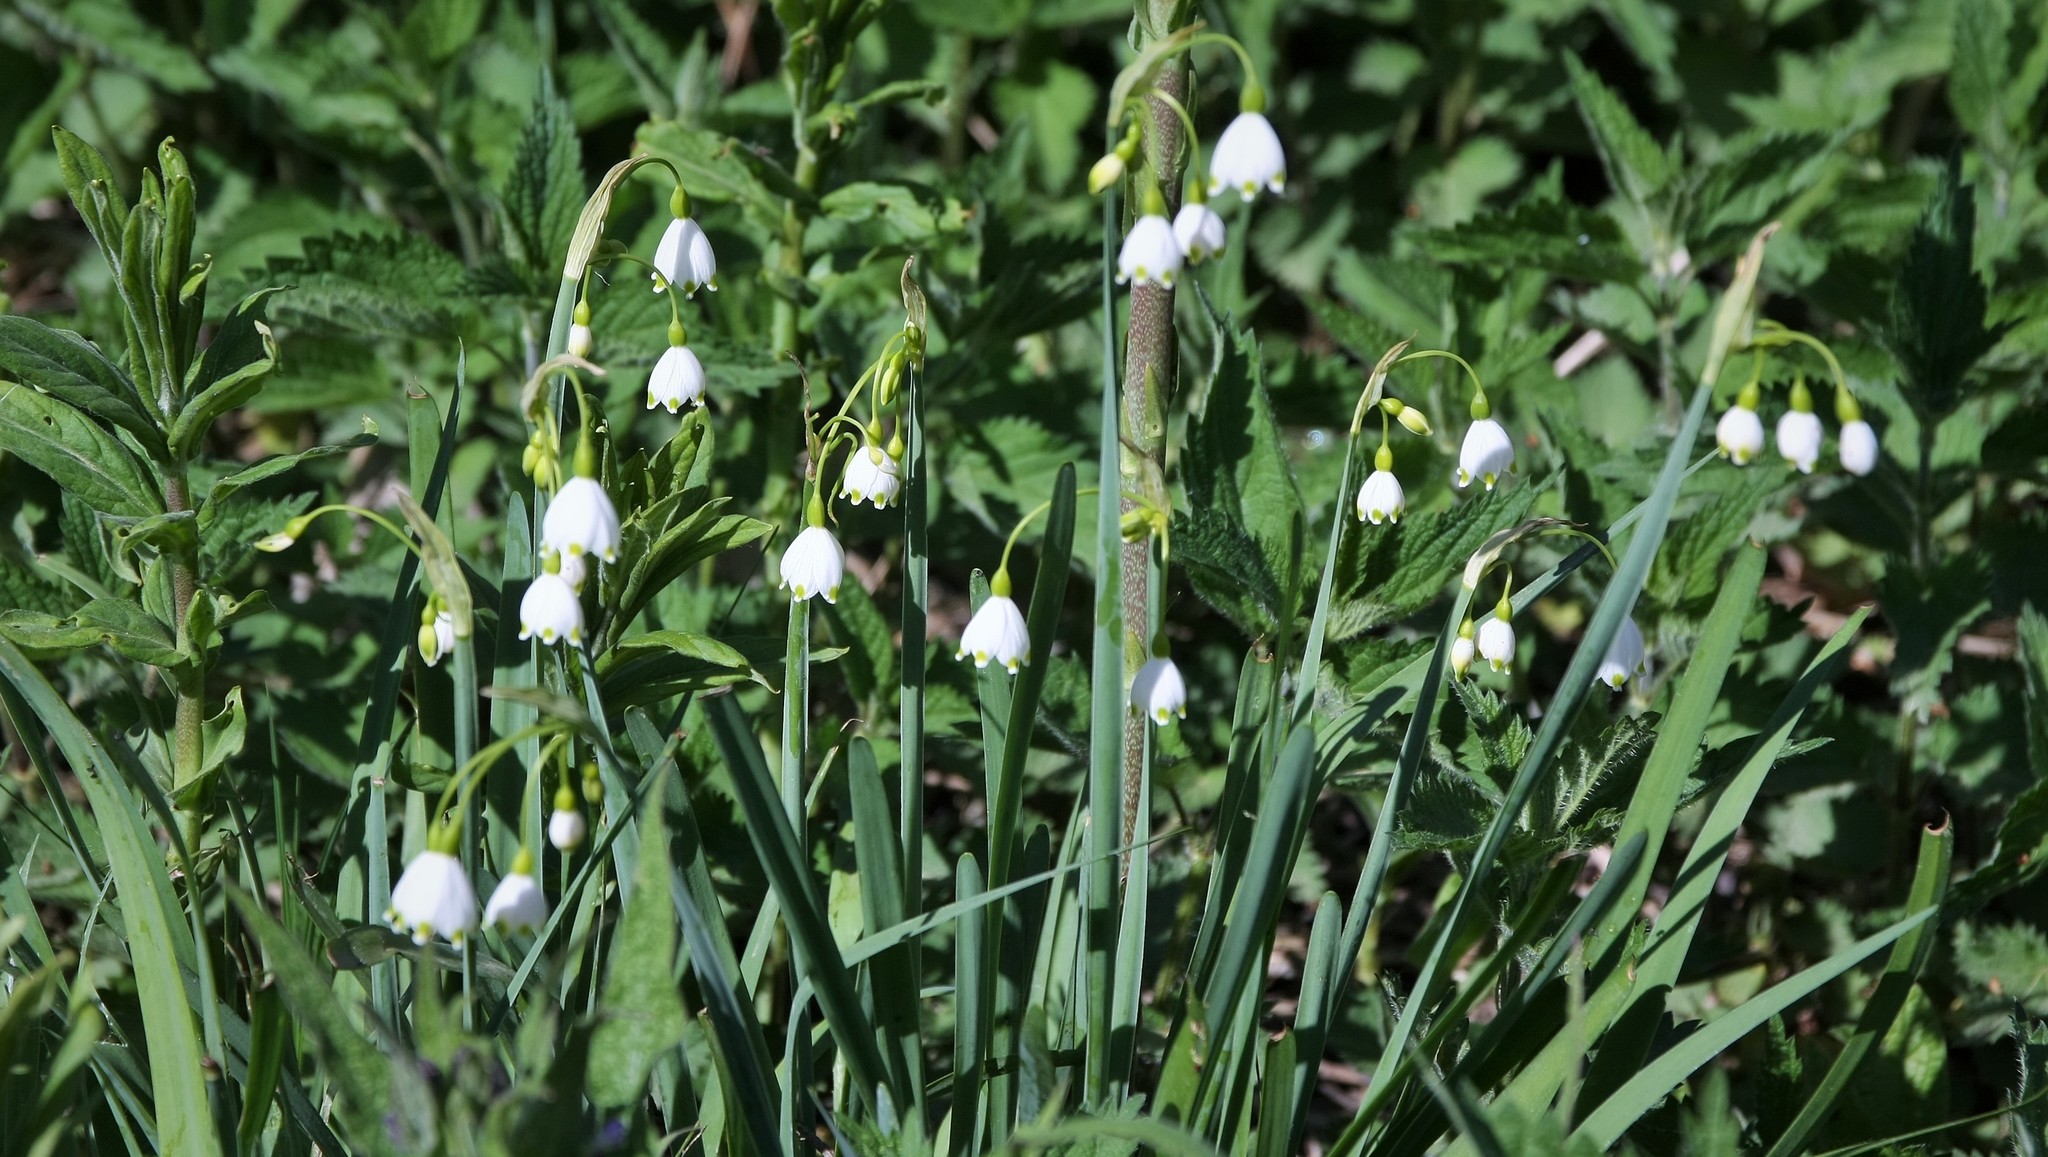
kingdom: Plantae
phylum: Tracheophyta
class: Liliopsida
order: Asparagales
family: Amaryllidaceae
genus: Leucojum
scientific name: Leucojum aestivum
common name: Summer snowflake
